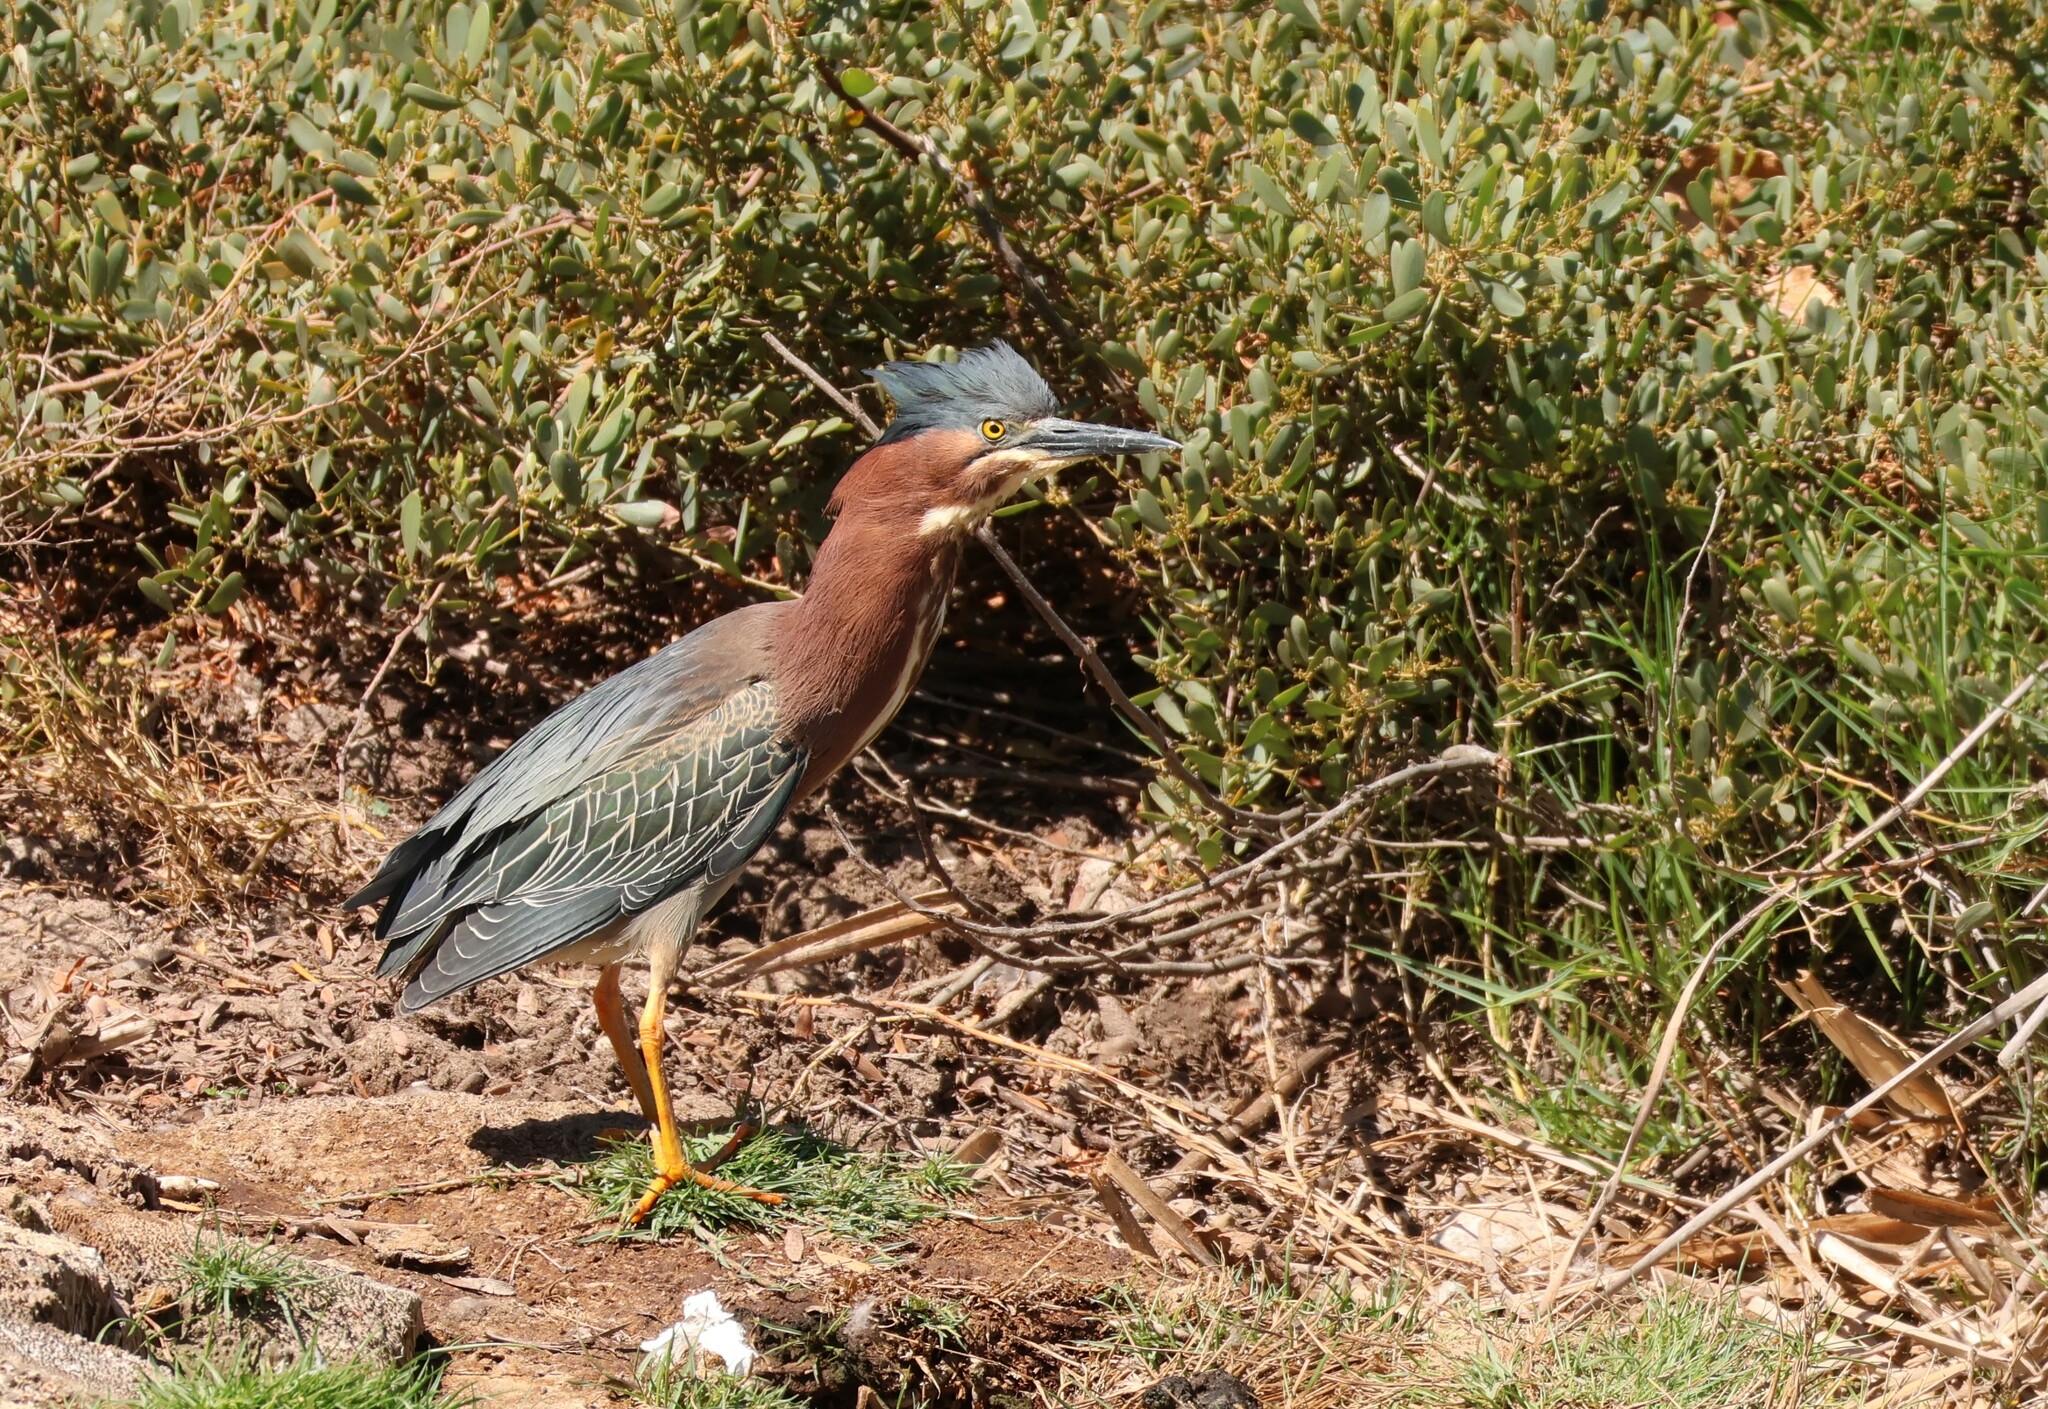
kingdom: Animalia
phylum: Chordata
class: Aves
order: Pelecaniformes
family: Ardeidae
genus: Butorides
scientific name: Butorides virescens
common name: Green heron
